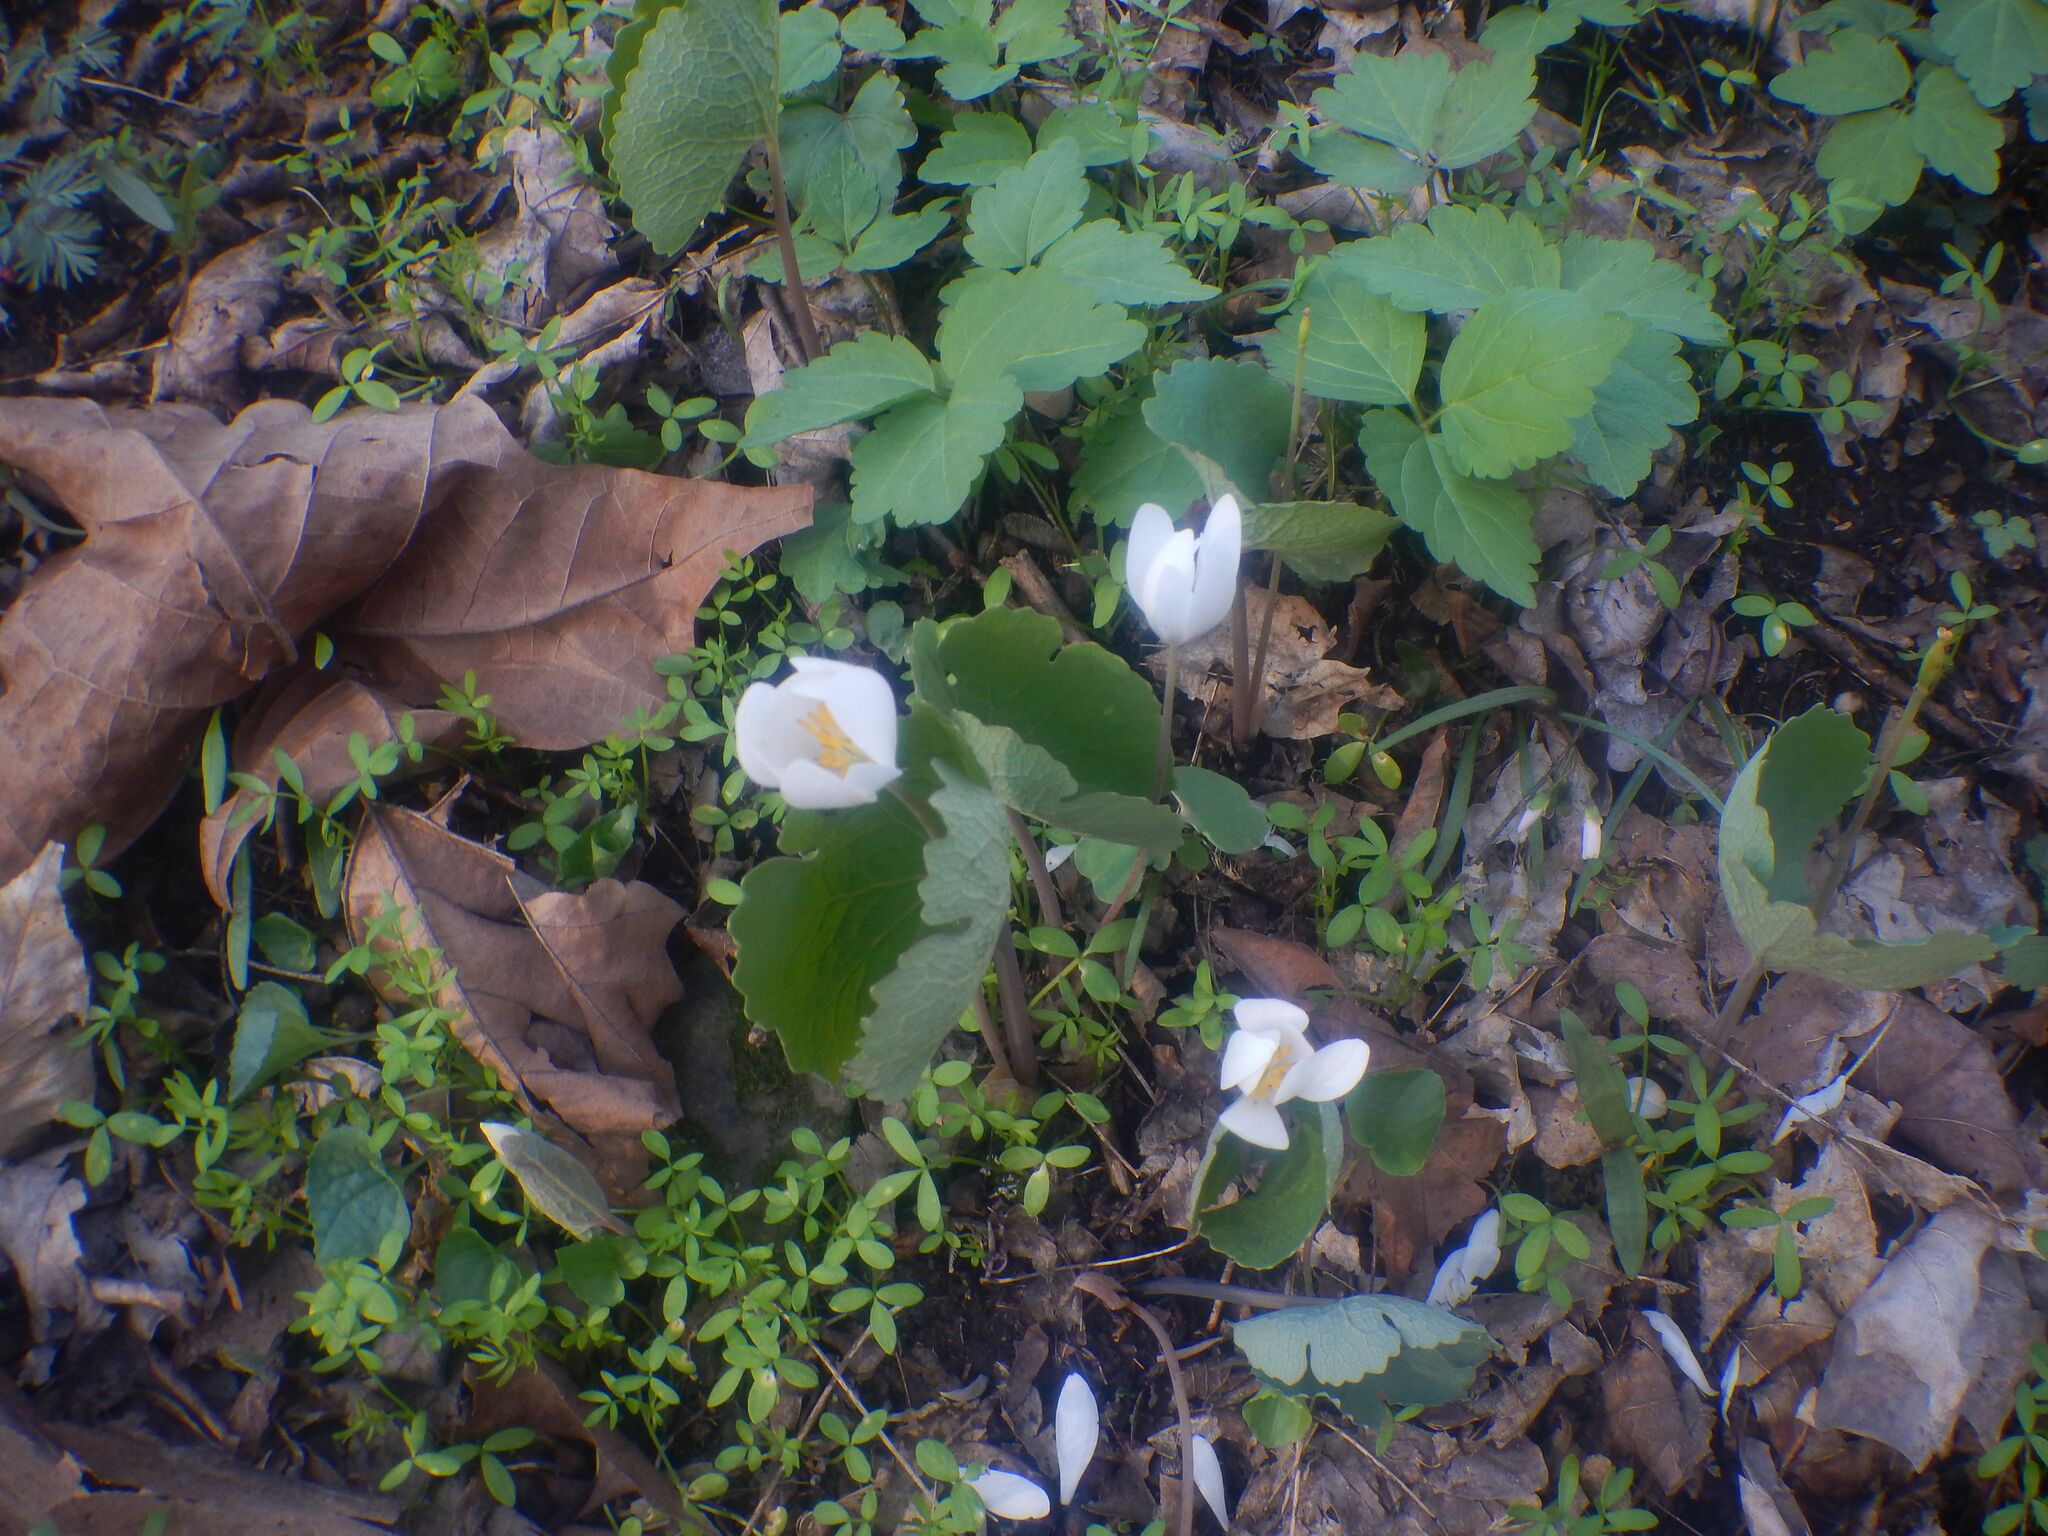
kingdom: Plantae
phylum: Tracheophyta
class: Magnoliopsida
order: Ranunculales
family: Papaveraceae
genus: Sanguinaria
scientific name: Sanguinaria canadensis
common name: Bloodroot
